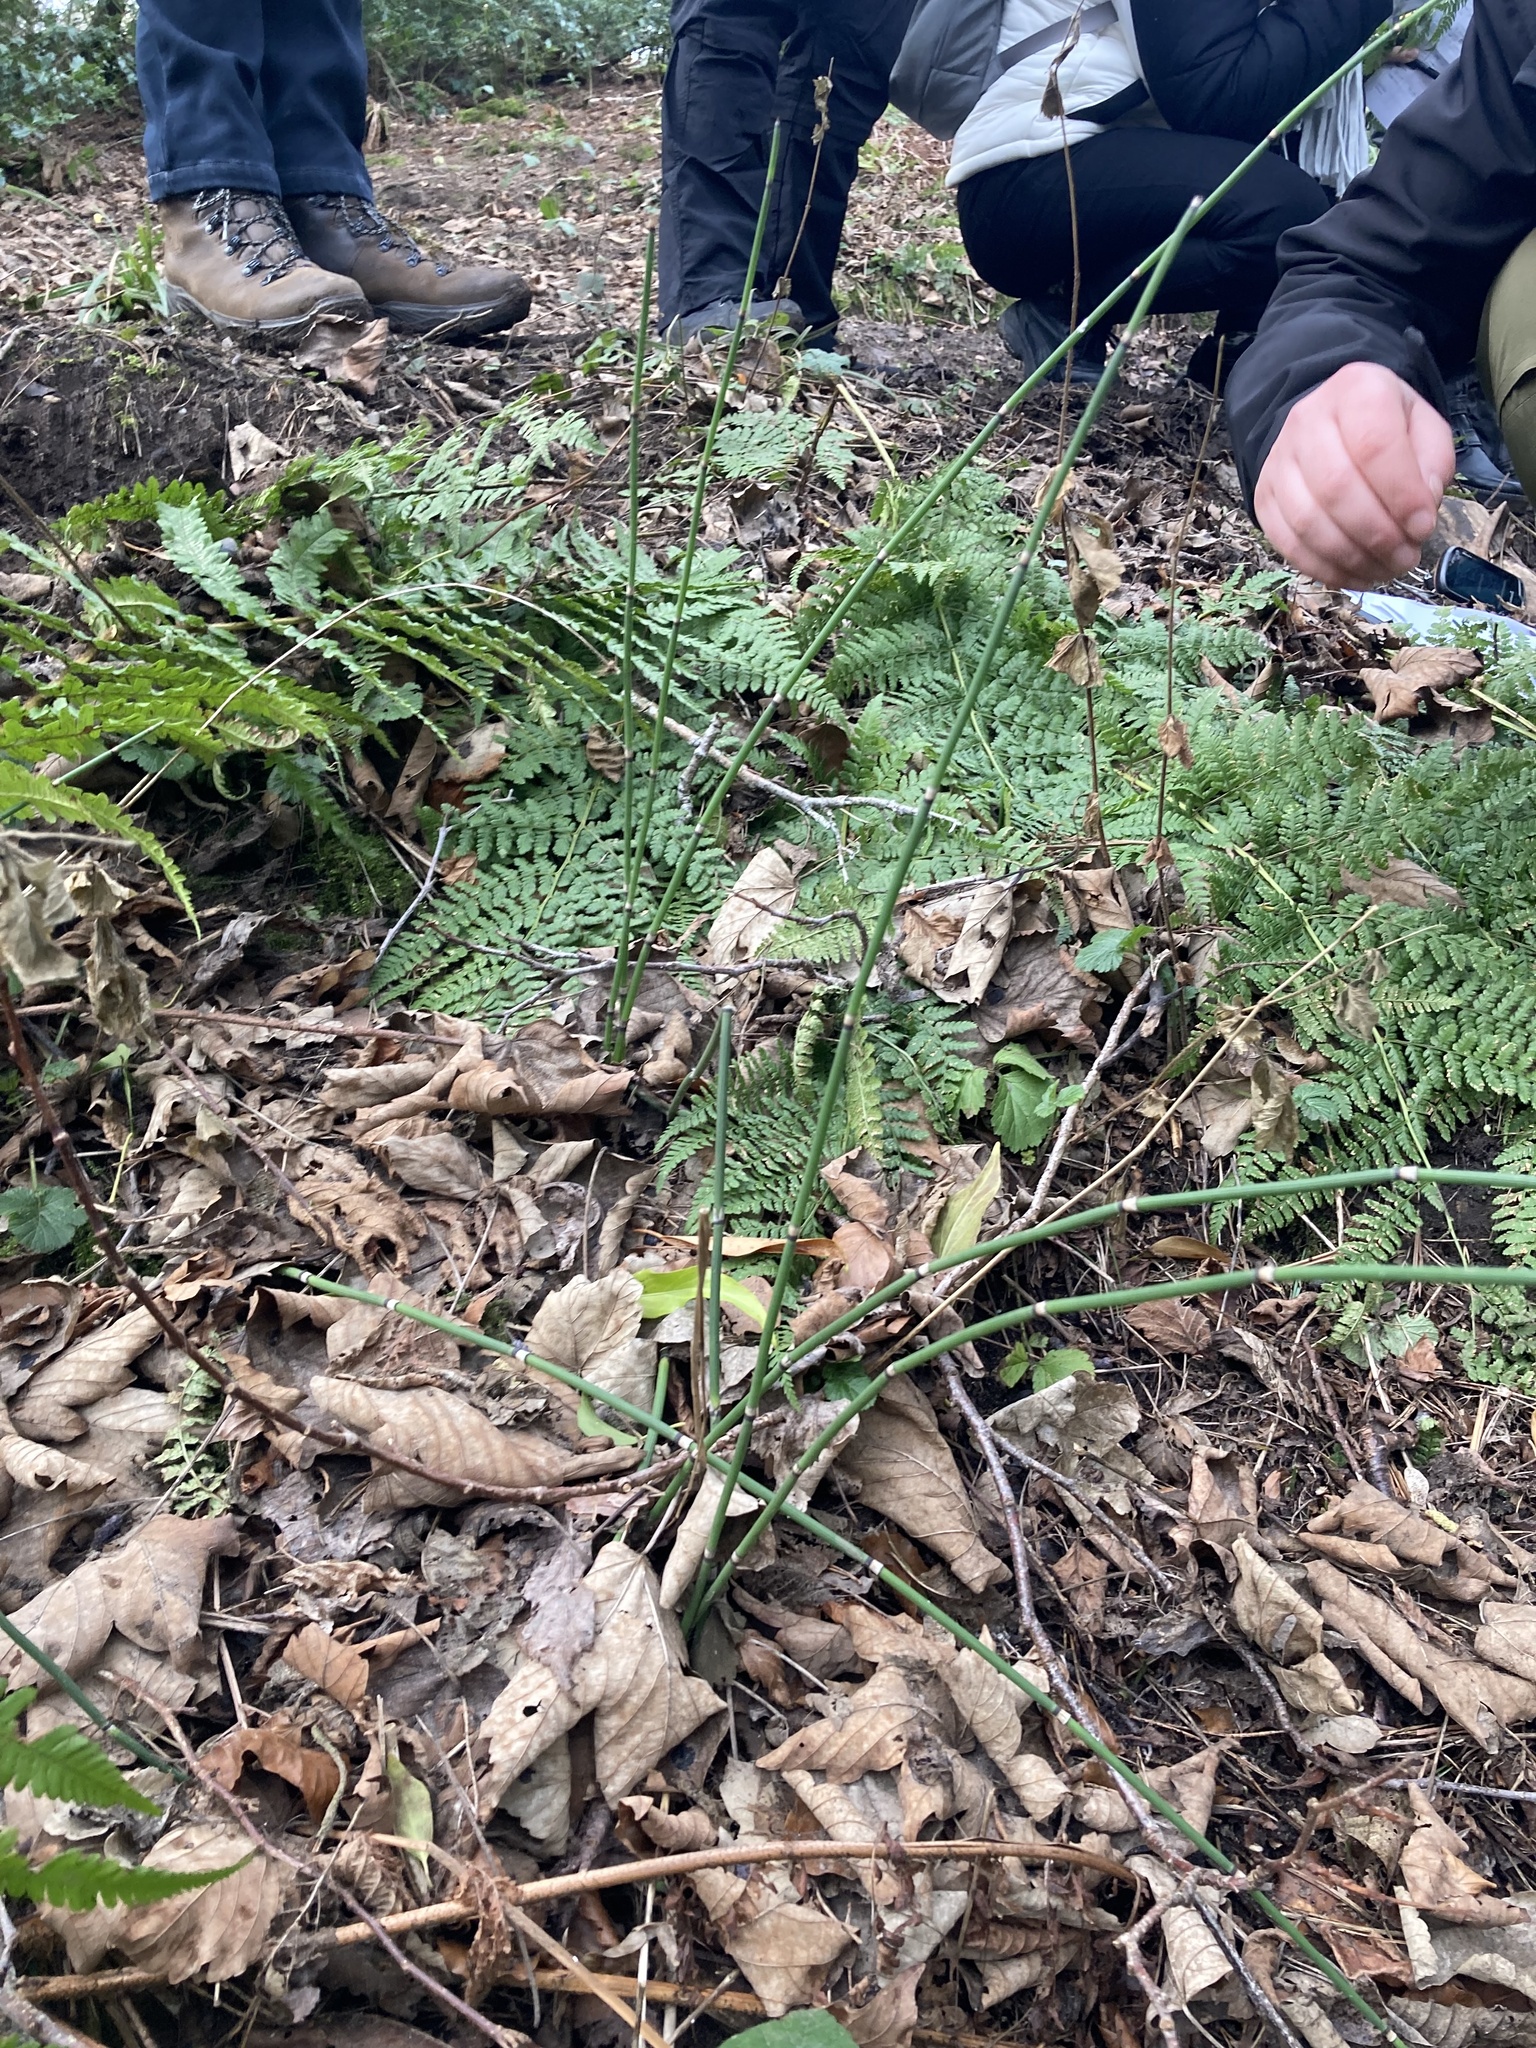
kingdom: Plantae
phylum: Tracheophyta
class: Polypodiopsida
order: Equisetales
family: Equisetaceae
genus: Equisetum
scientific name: Equisetum hyemale
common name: Rough horsetail
